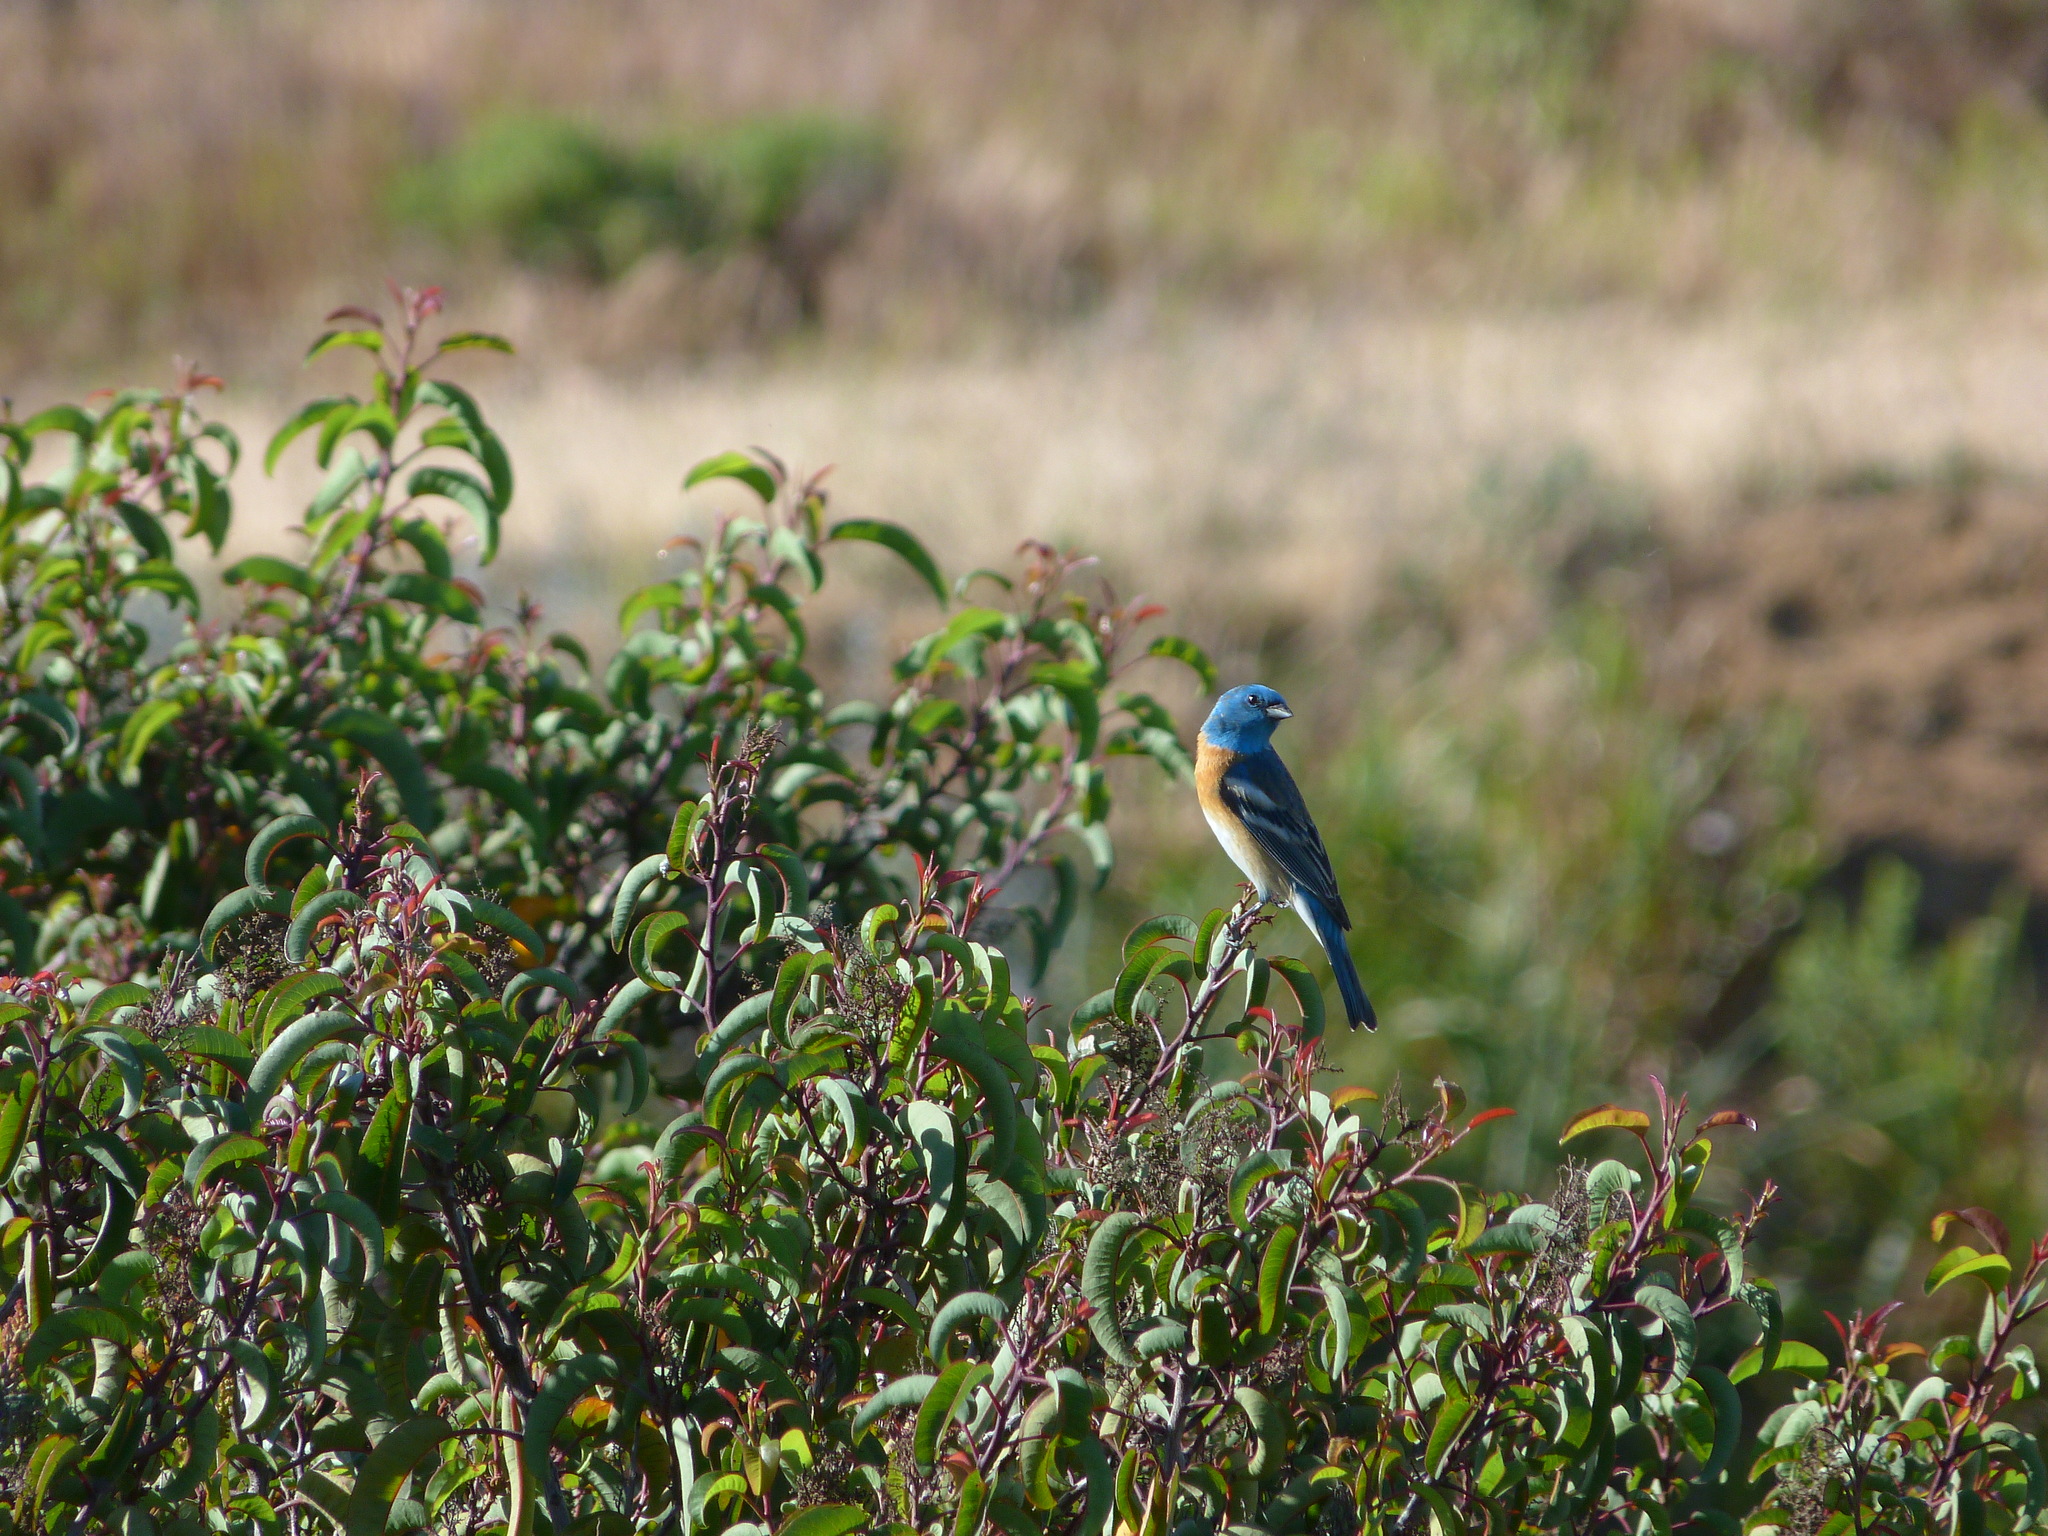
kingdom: Animalia
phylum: Chordata
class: Aves
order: Passeriformes
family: Cardinalidae
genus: Passerina
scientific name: Passerina amoena
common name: Lazuli bunting
